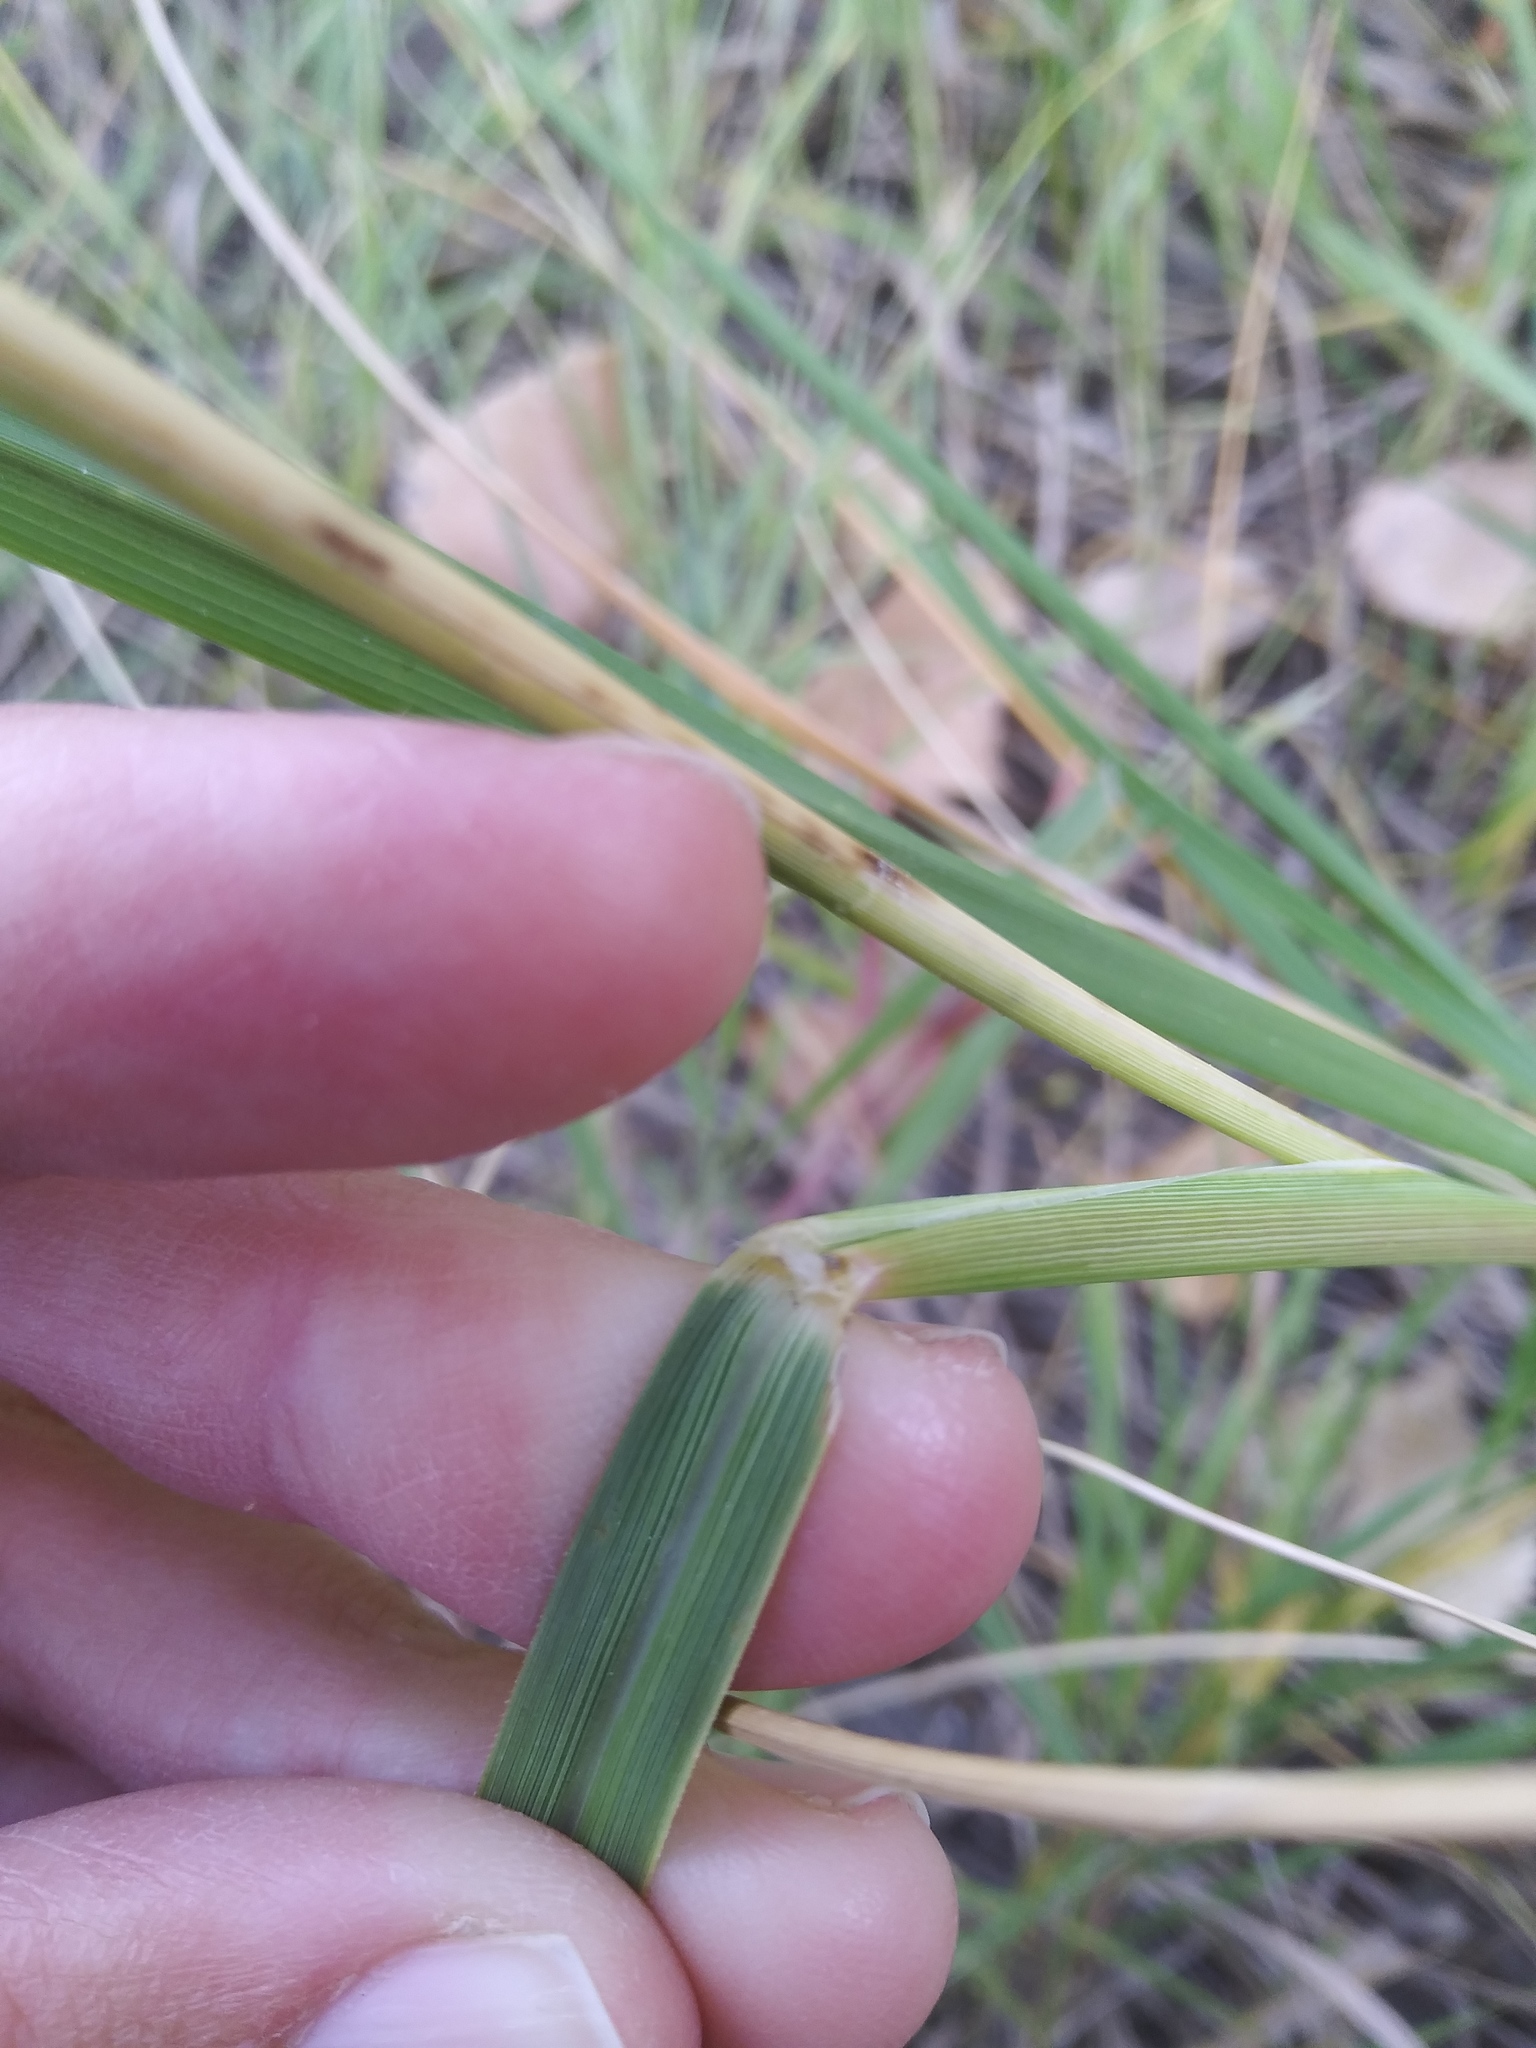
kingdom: Plantae
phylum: Tracheophyta
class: Liliopsida
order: Poales
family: Poaceae
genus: Sporobolus
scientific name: Sporobolus michauxianus
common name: Freshwater cordgrass
